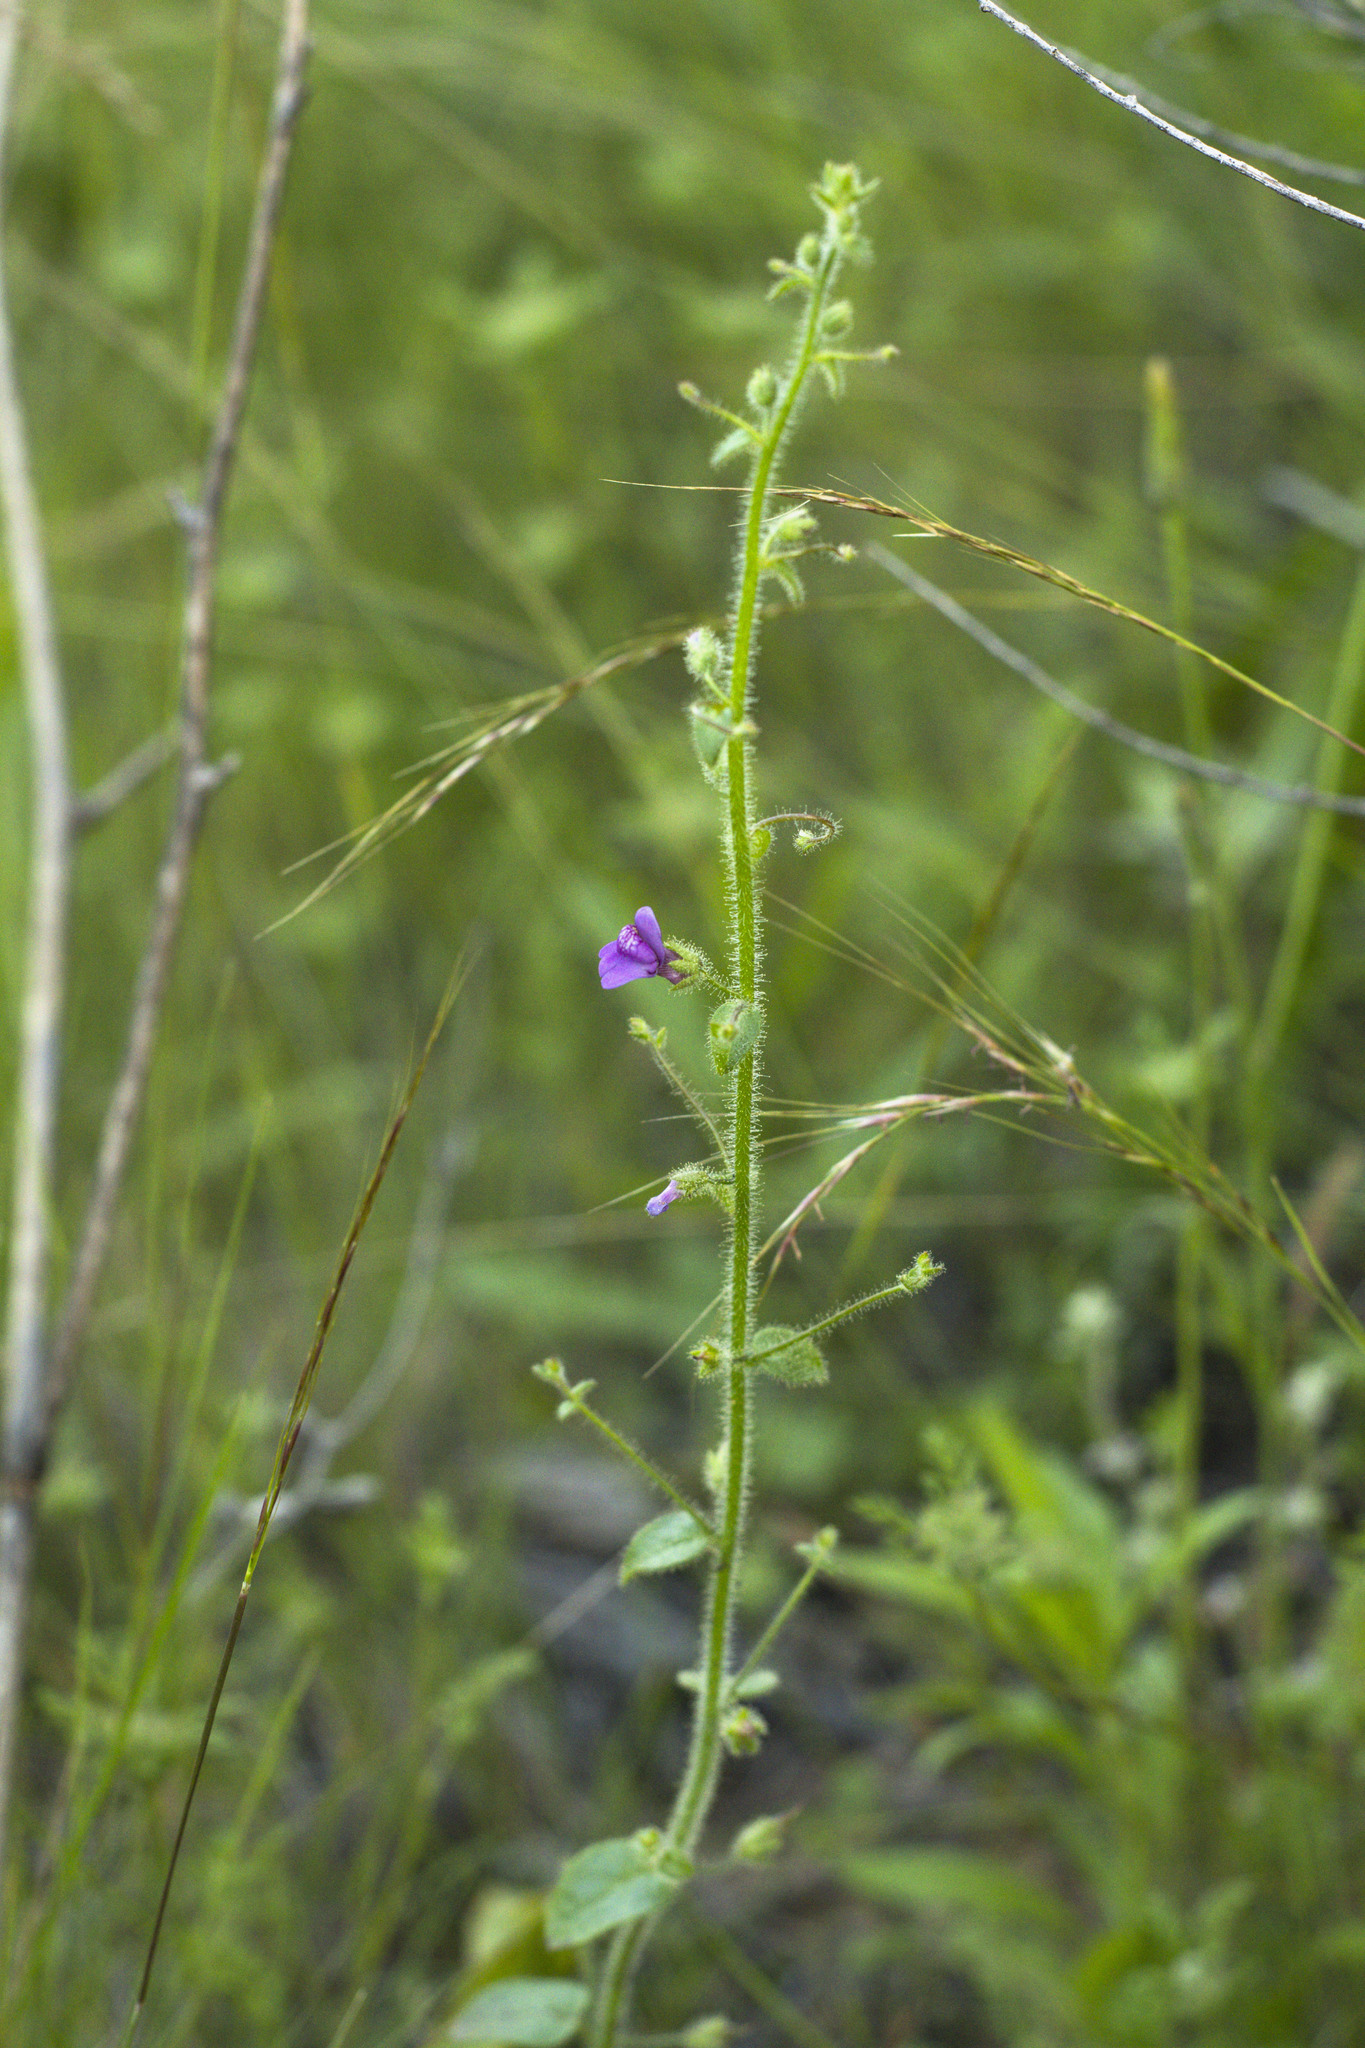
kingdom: Plantae
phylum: Tracheophyta
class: Magnoliopsida
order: Lamiales
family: Plantaginaceae
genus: Sairocarpus
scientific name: Sairocarpus nuttallianus
